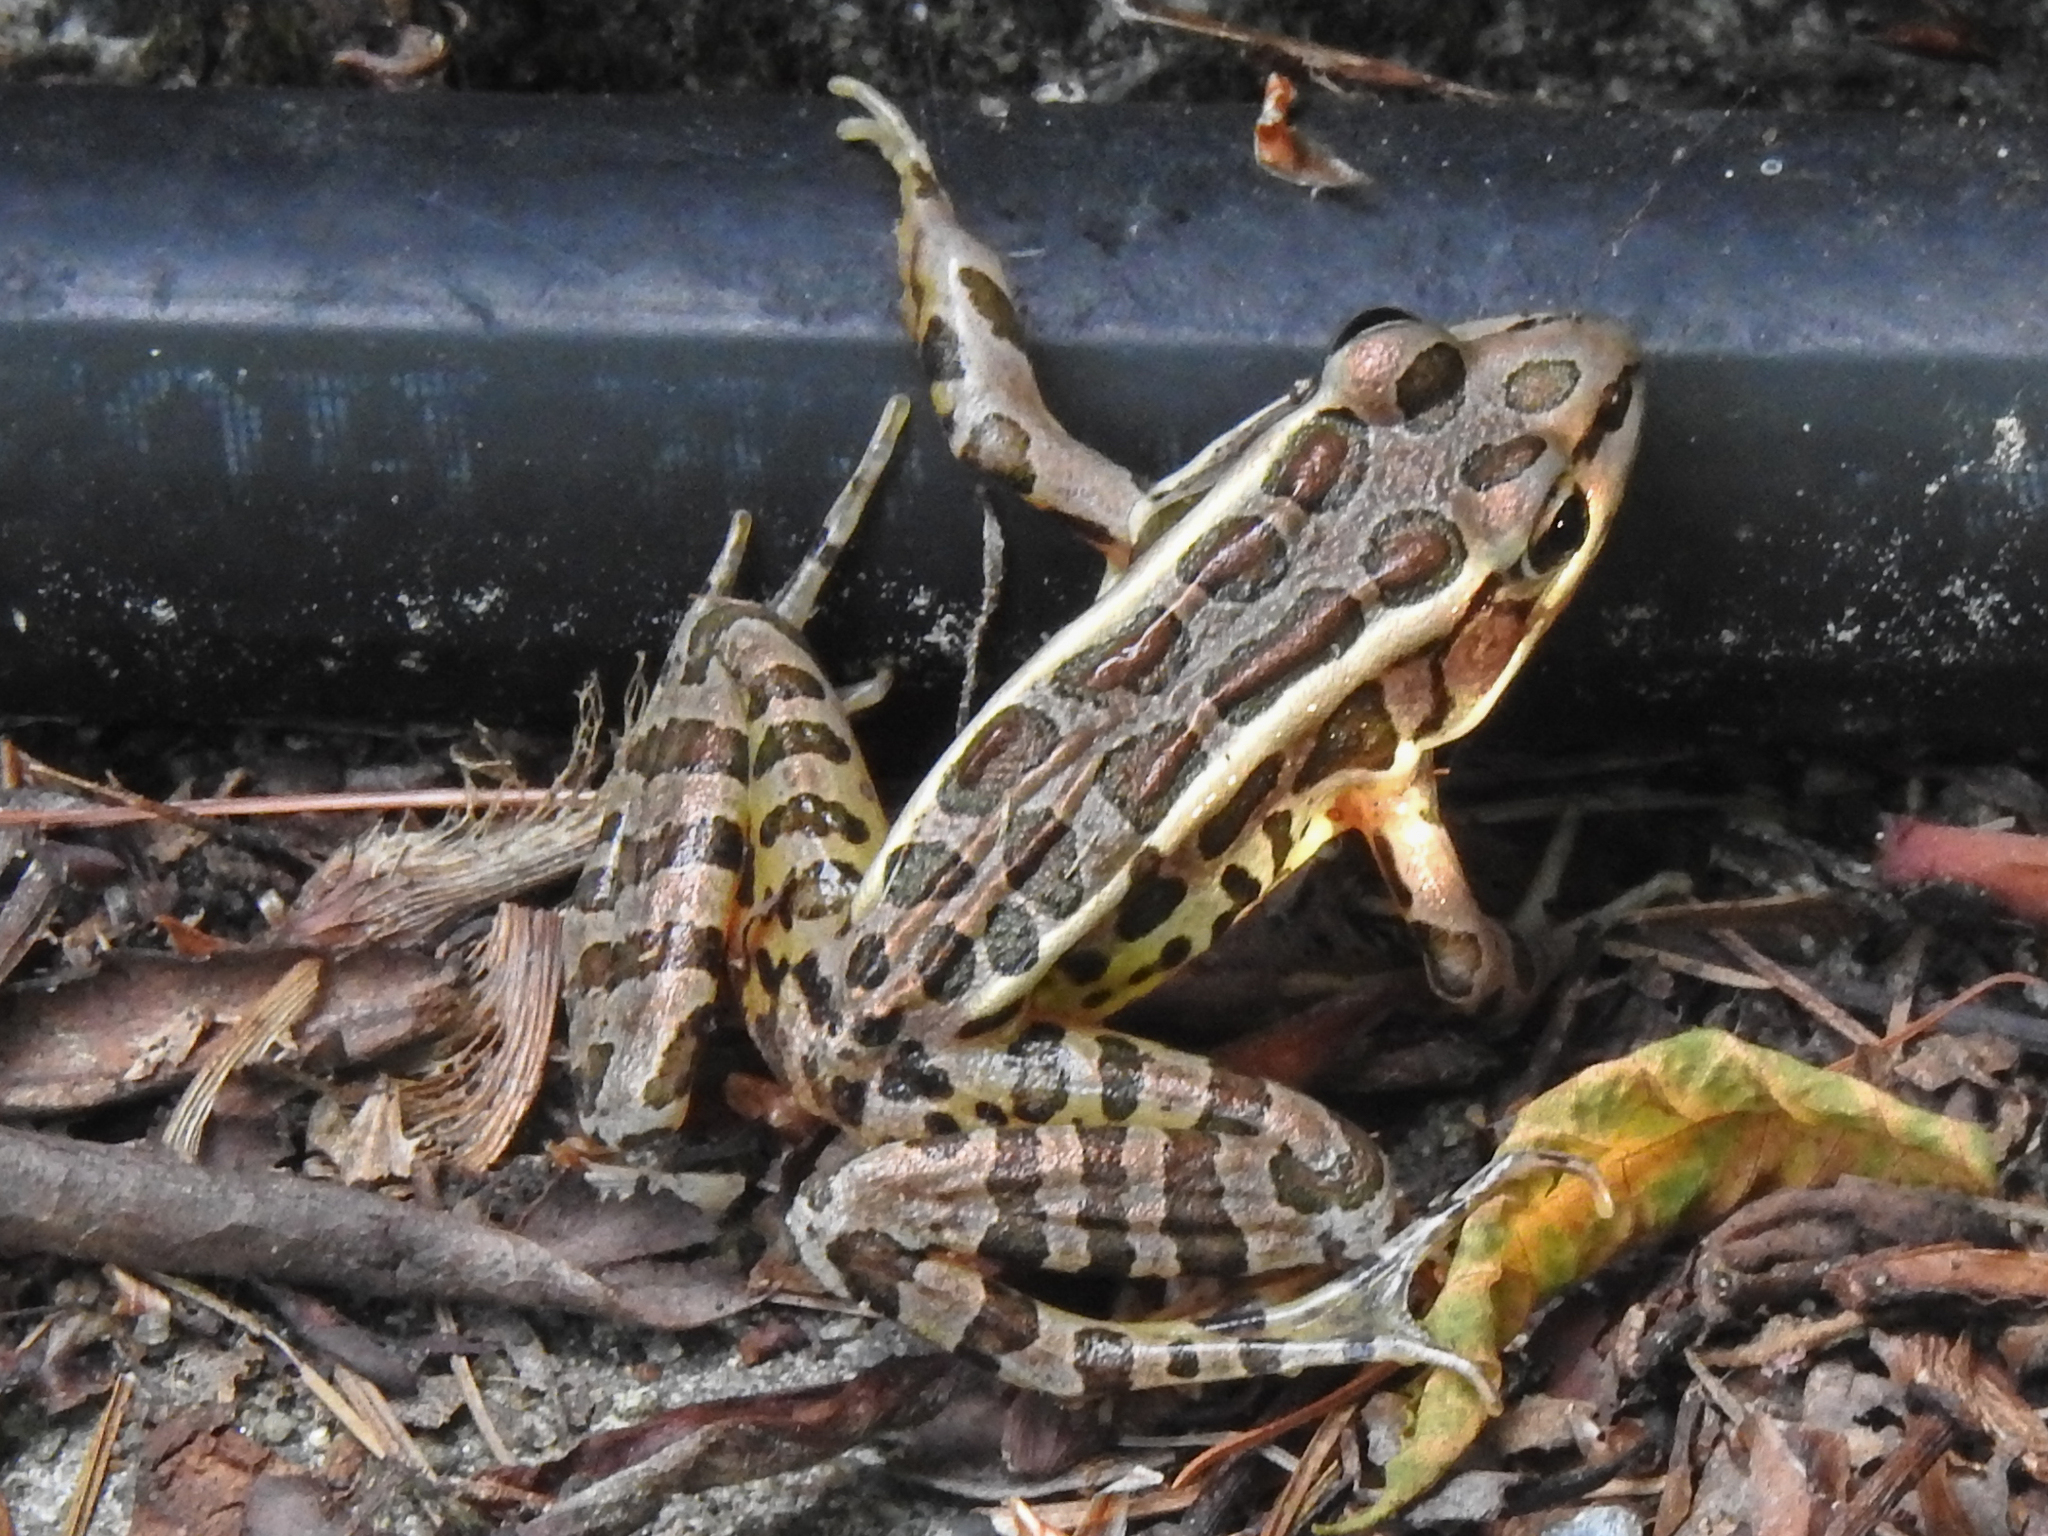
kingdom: Animalia
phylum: Chordata
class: Amphibia
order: Anura
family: Ranidae
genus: Lithobates
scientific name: Lithobates palustris
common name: Pickerel frog
